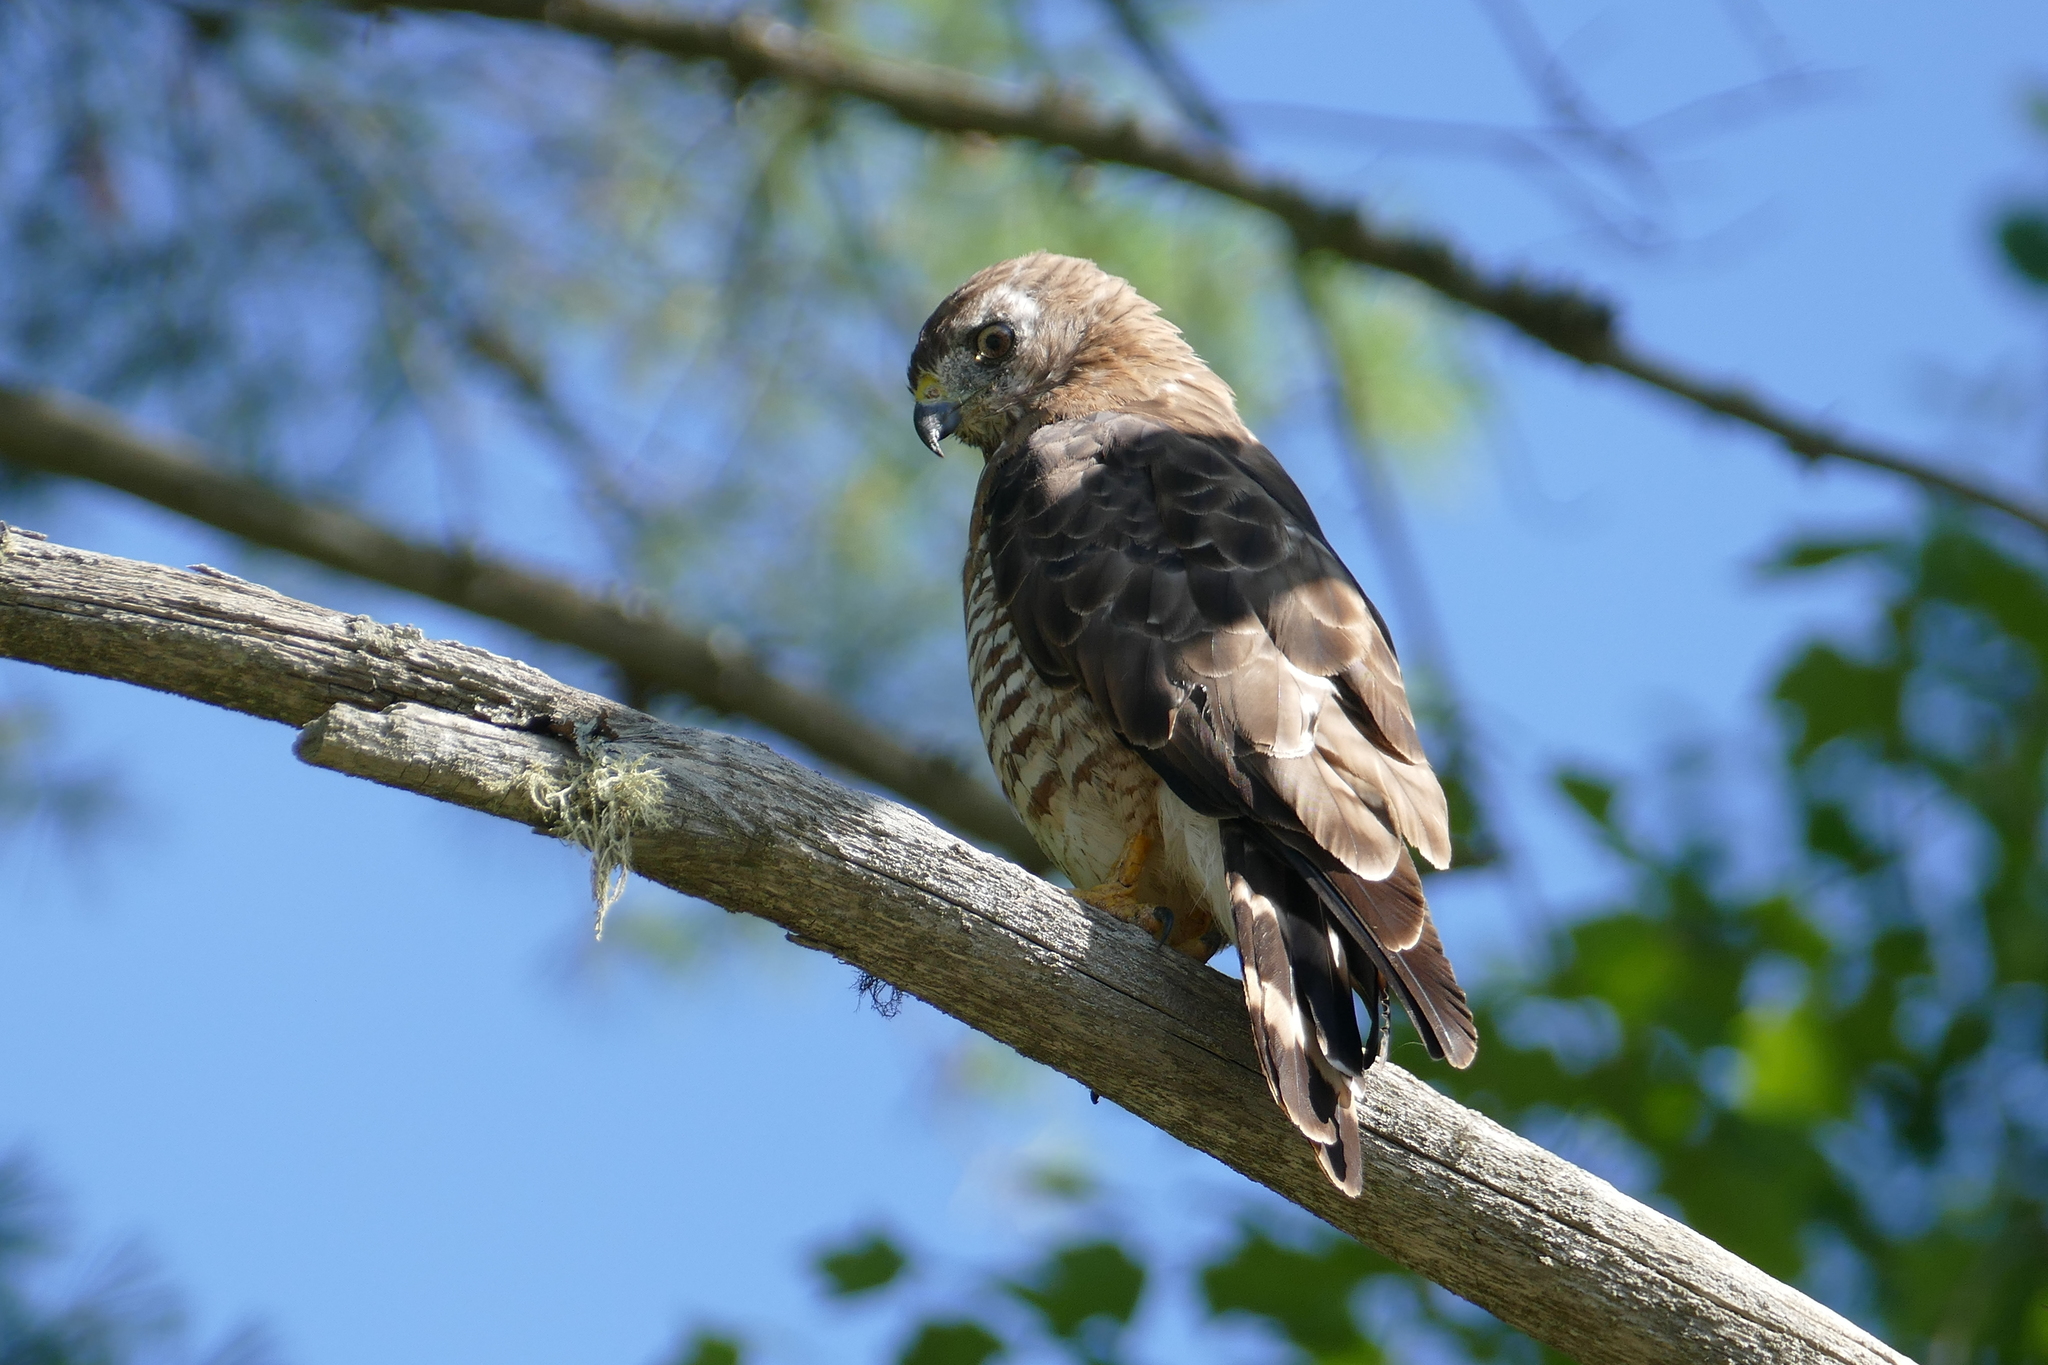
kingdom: Animalia
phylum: Chordata
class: Aves
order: Accipitriformes
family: Accipitridae
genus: Buteo
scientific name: Buteo platypterus
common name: Broad-winged hawk
